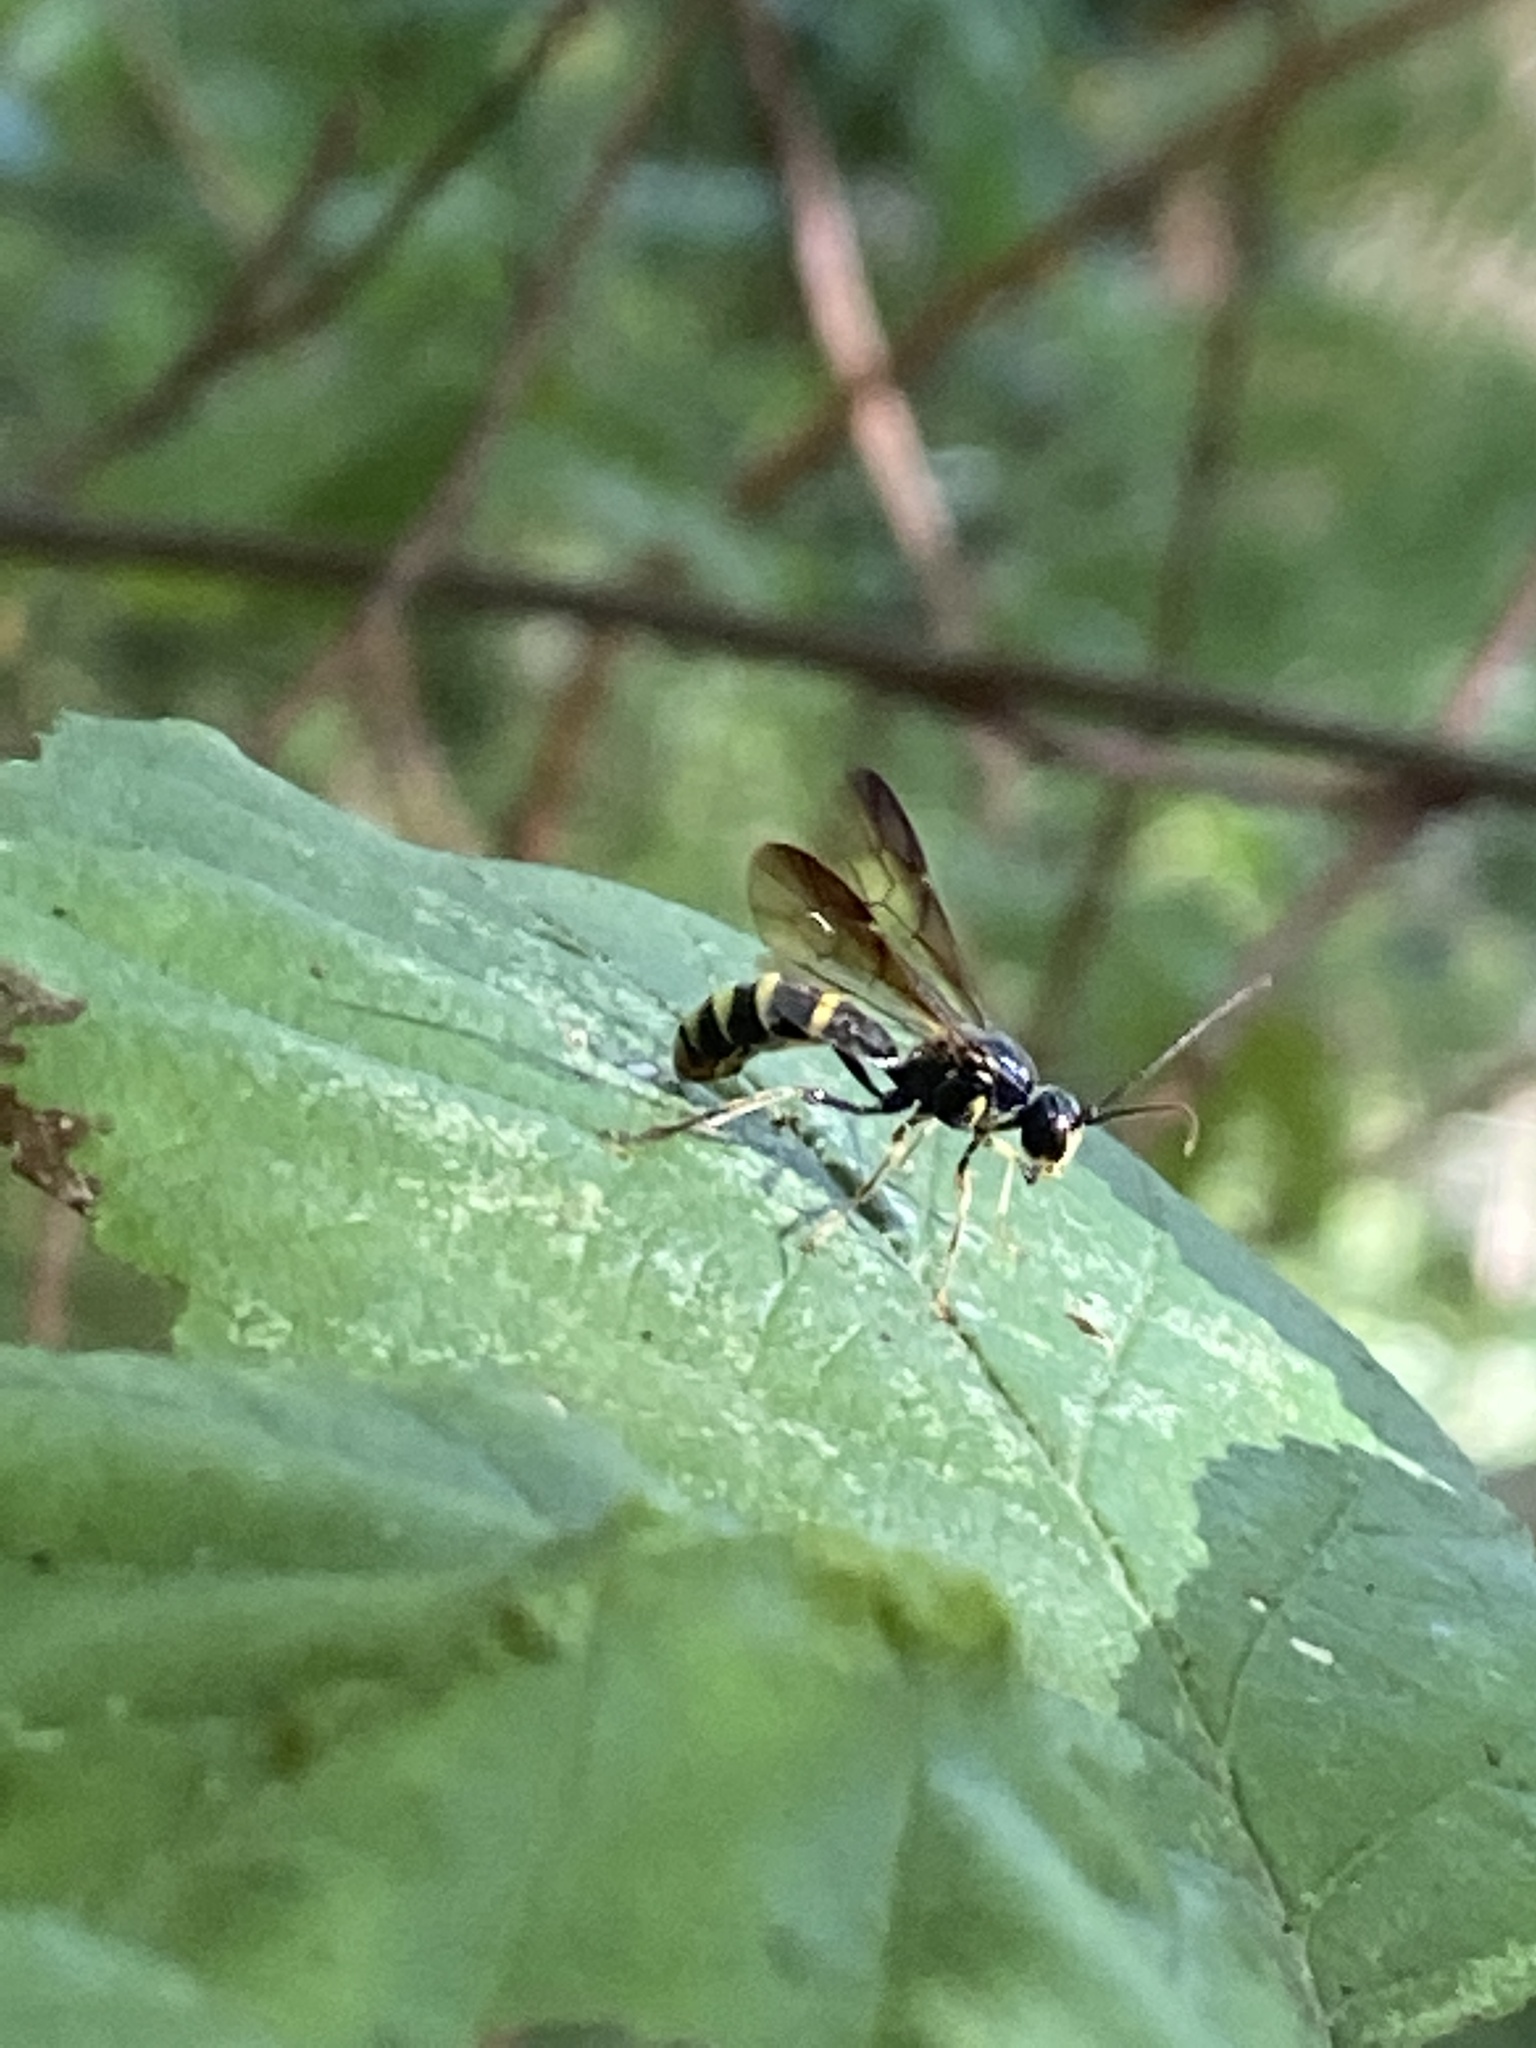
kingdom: Animalia
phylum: Arthropoda
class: Insecta
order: Hymenoptera
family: Ichneumonidae
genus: Excavarus
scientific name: Excavarus apiarius
